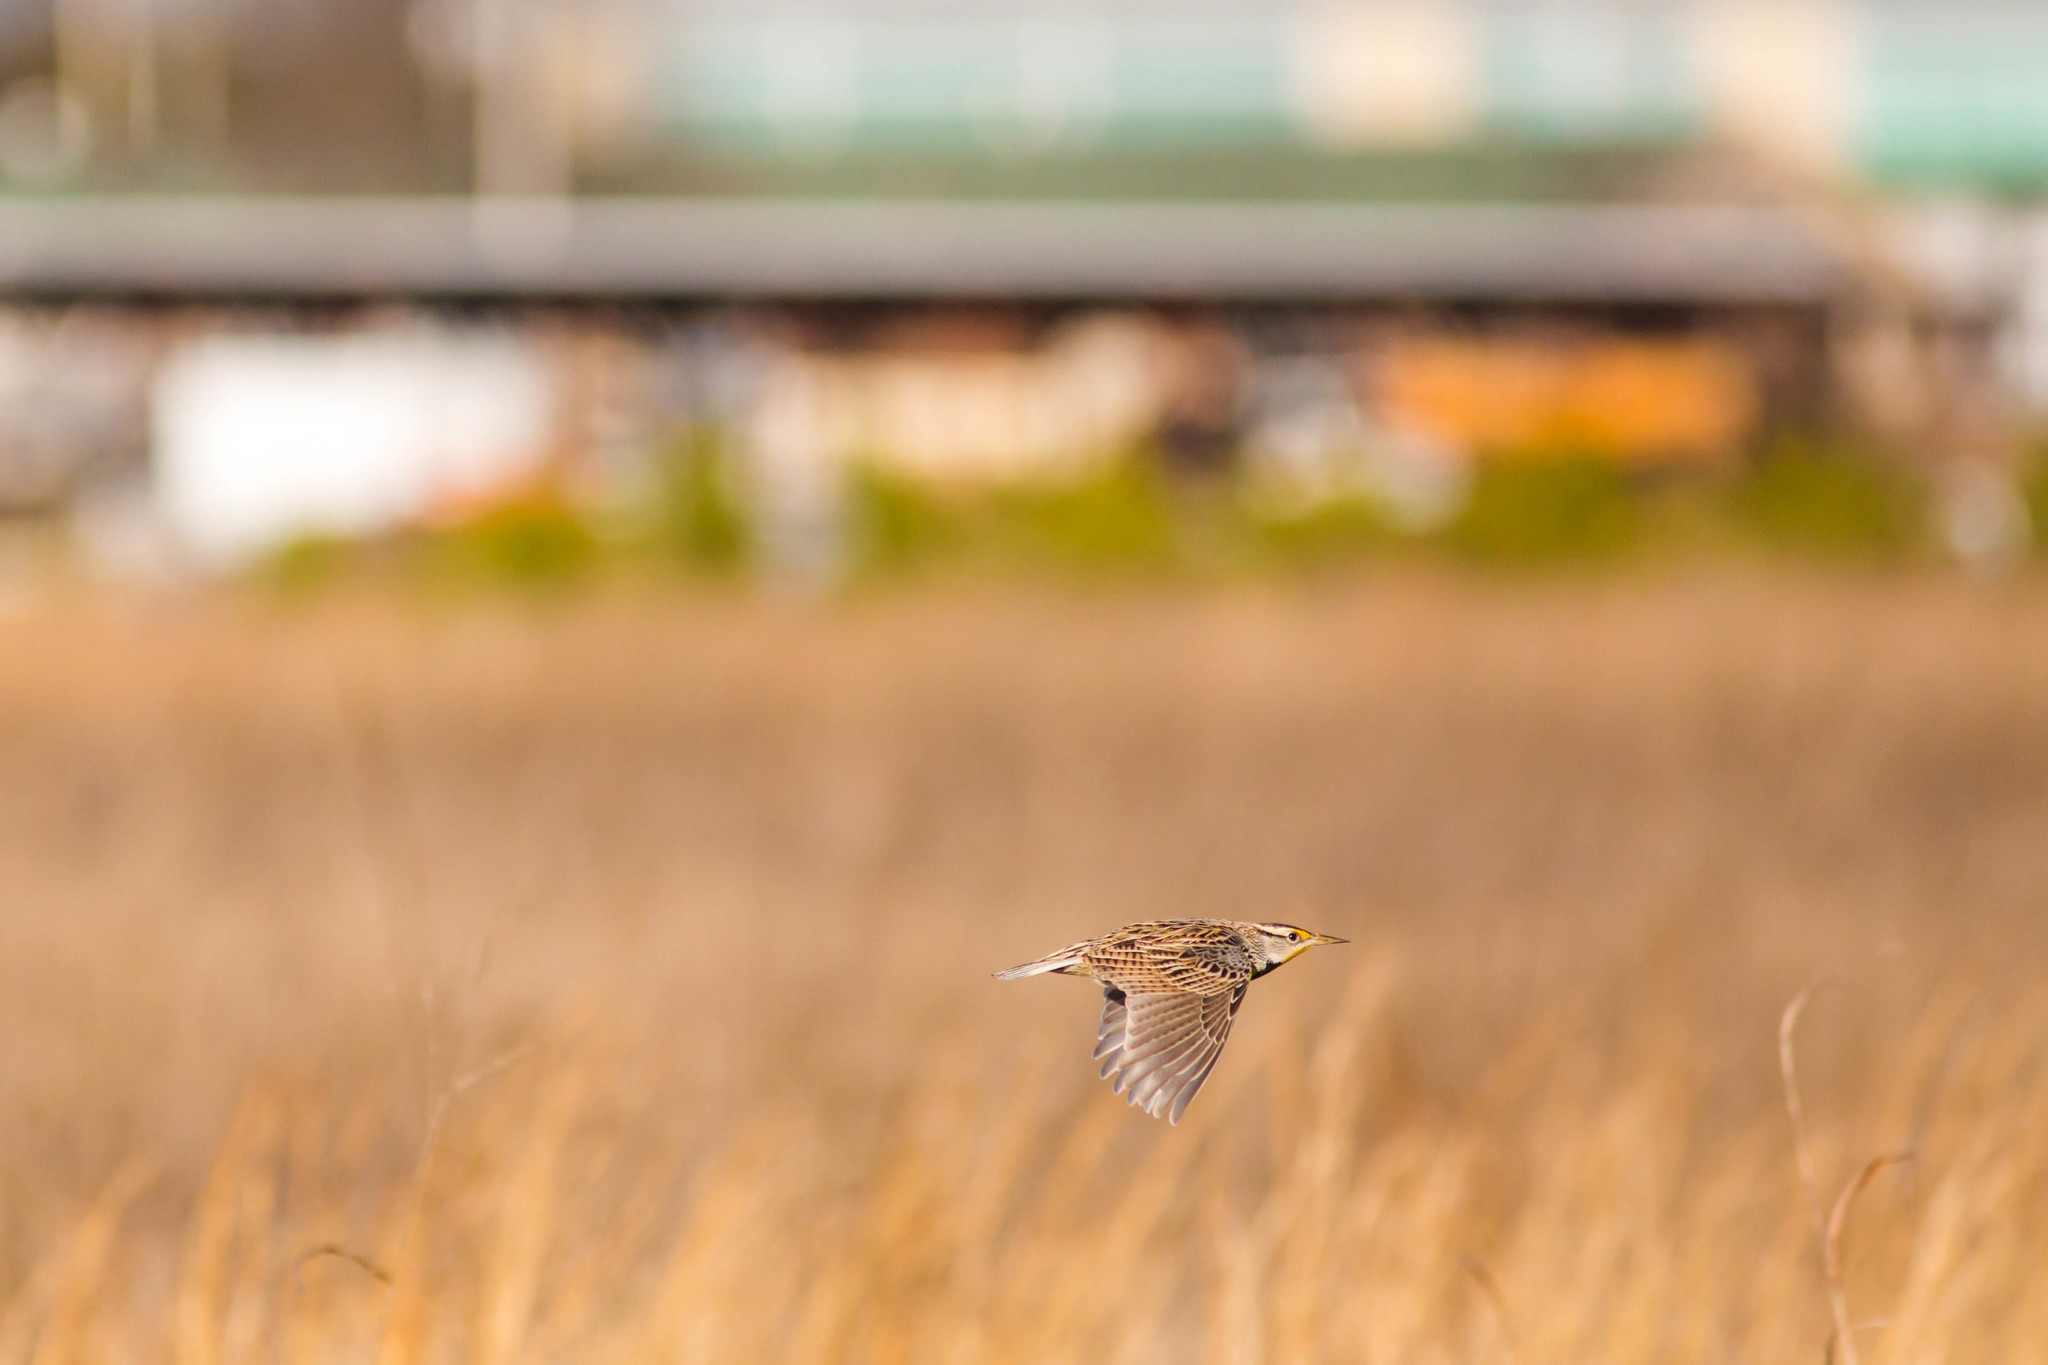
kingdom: Animalia
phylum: Chordata
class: Aves
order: Passeriformes
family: Icteridae
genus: Sturnella
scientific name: Sturnella magna
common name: Eastern meadowlark
